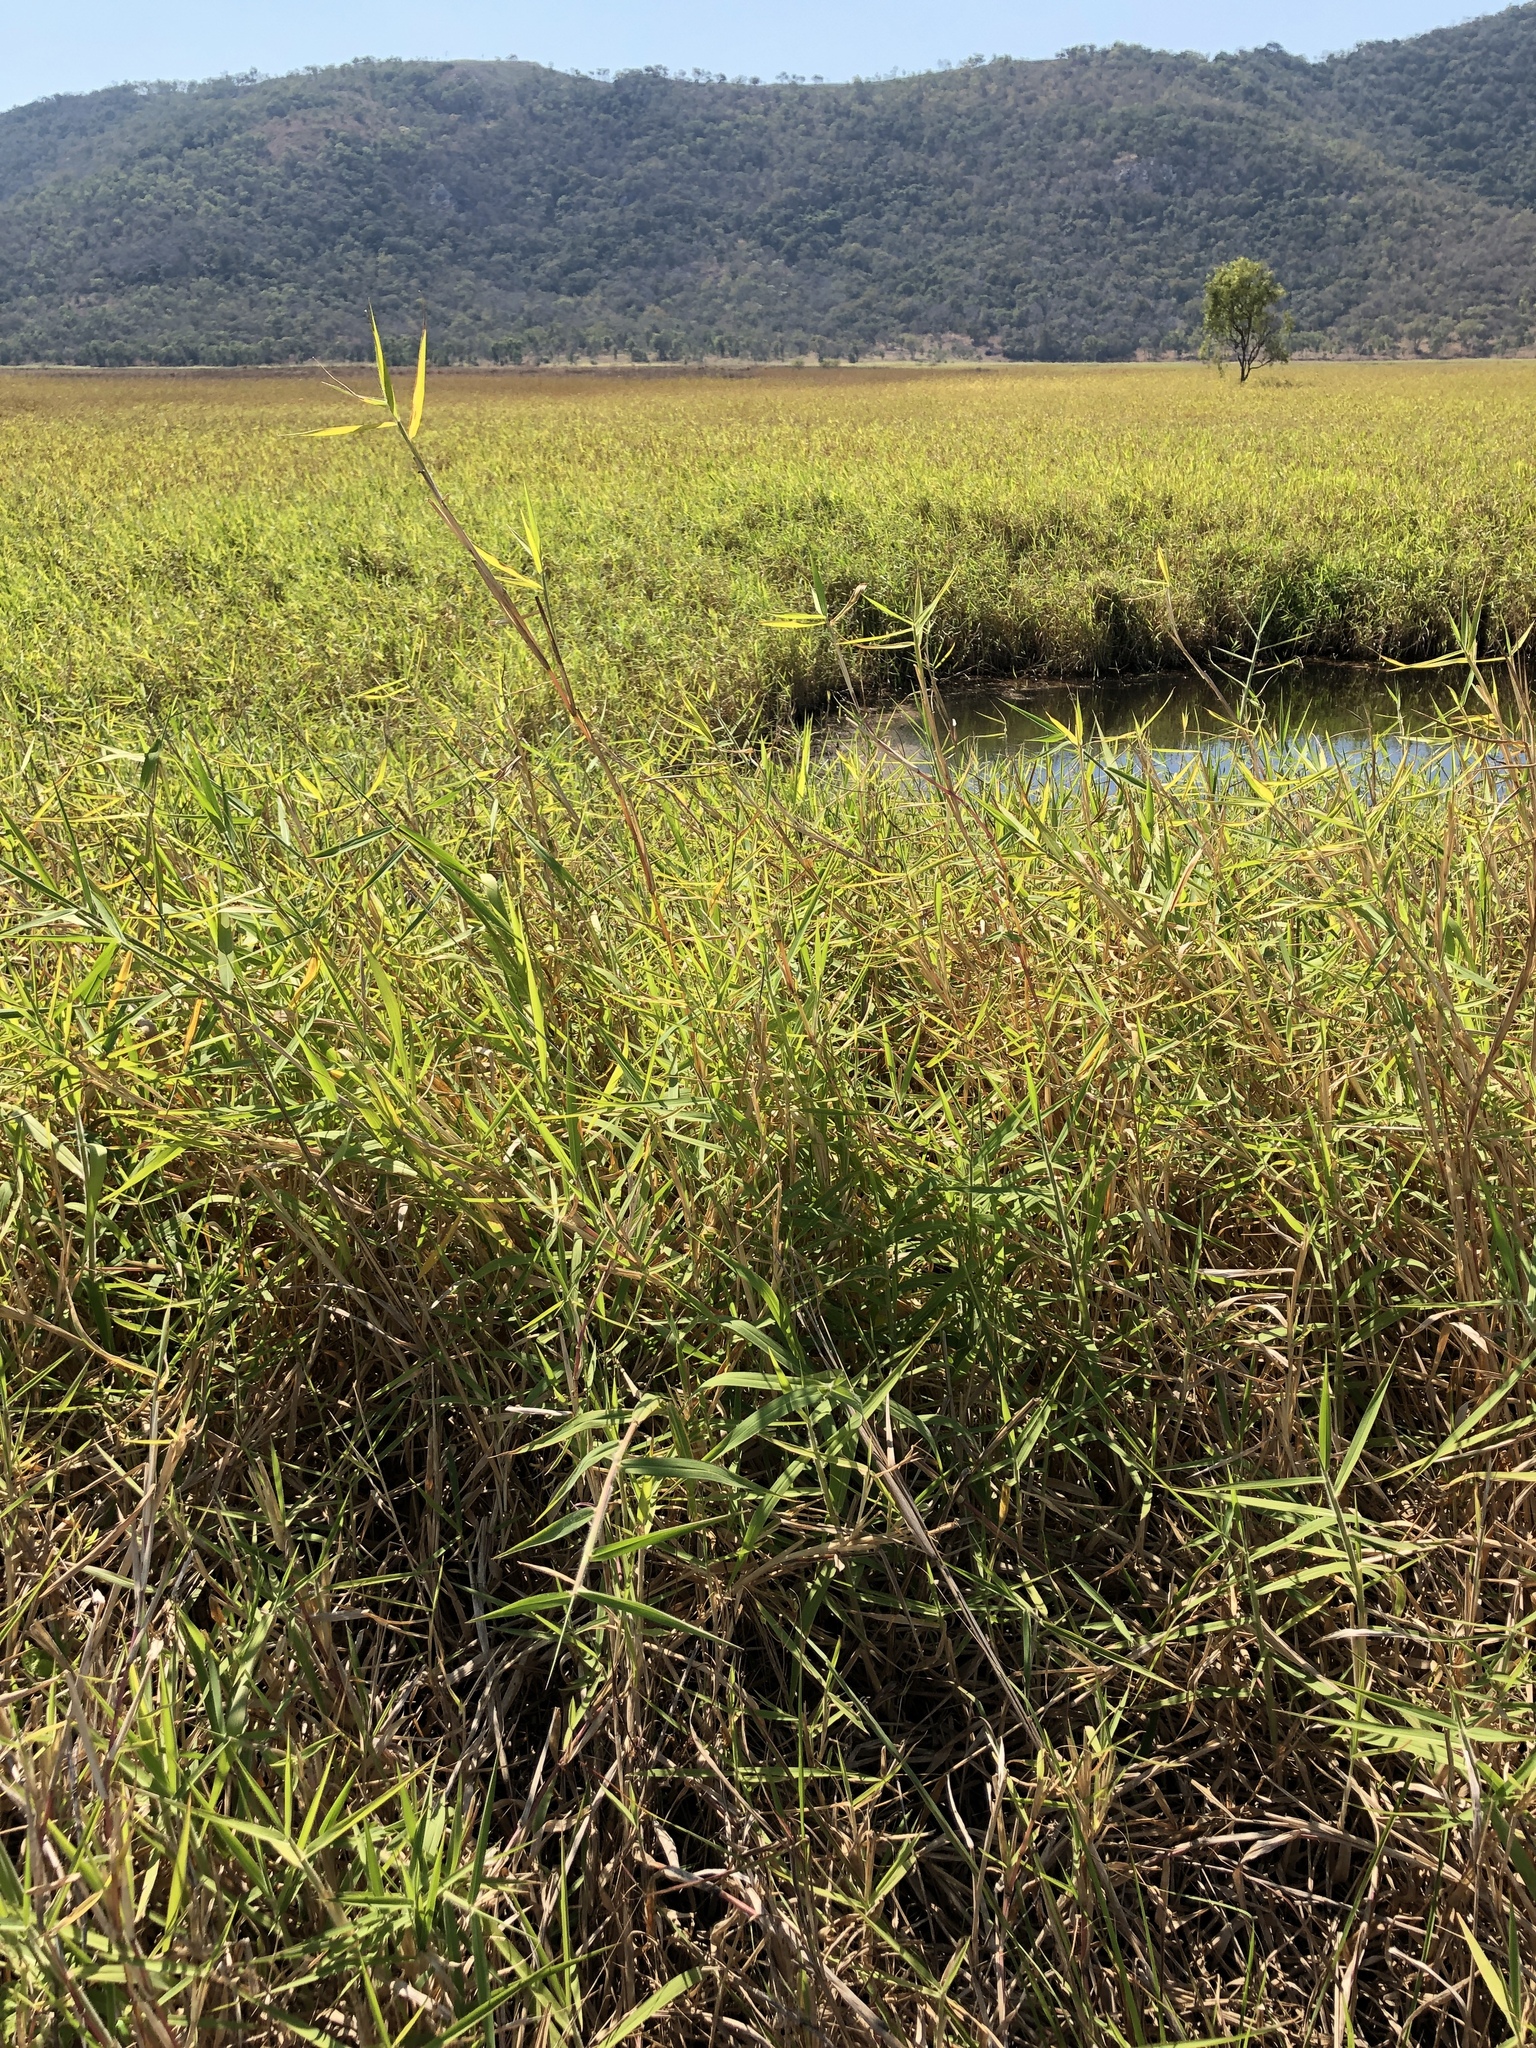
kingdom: Plantae
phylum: Tracheophyta
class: Liliopsida
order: Poales
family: Poaceae
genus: Urochloa
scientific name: Urochloa mutica
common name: Para grass
